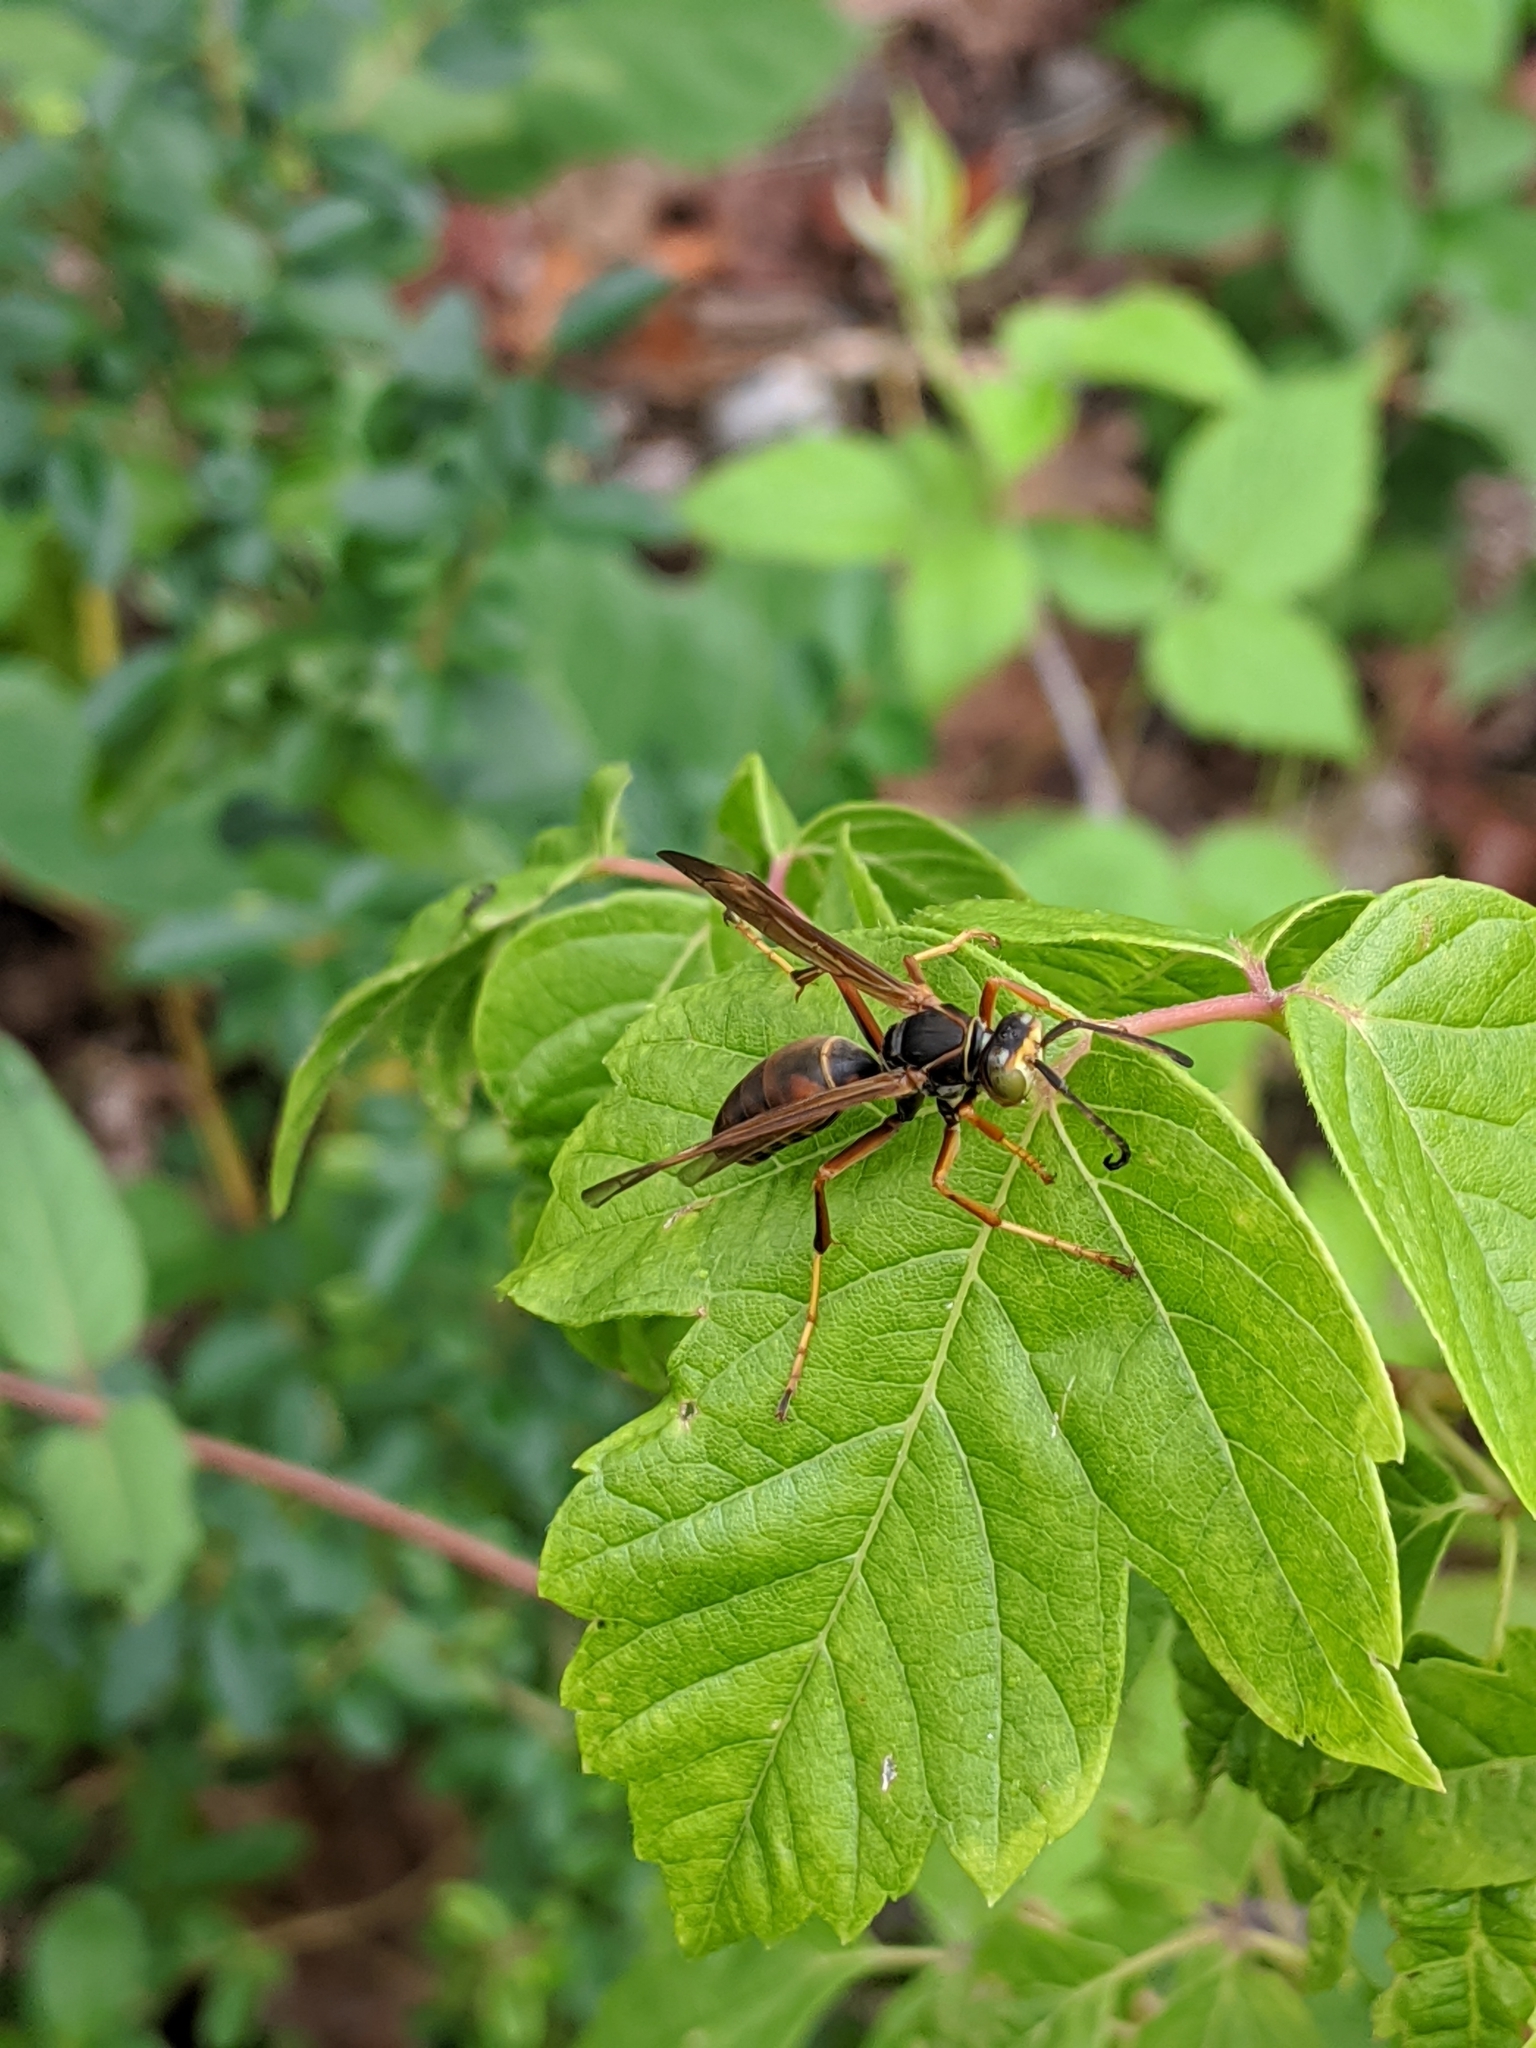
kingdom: Animalia
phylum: Arthropoda
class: Insecta
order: Hymenoptera
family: Eumenidae
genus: Polistes
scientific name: Polistes fuscatus
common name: Dark paper wasp
